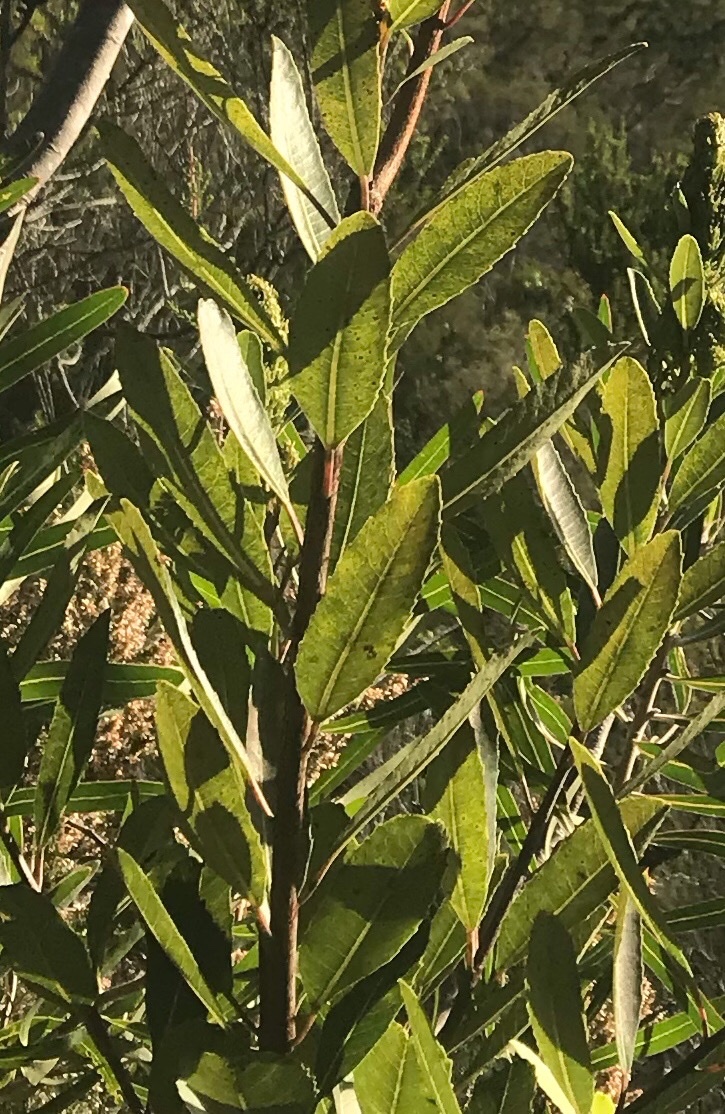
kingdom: Plantae
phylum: Tracheophyta
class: Magnoliopsida
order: Sapindales
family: Anacardiaceae
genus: Laurophyllus
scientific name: Laurophyllus capensis
